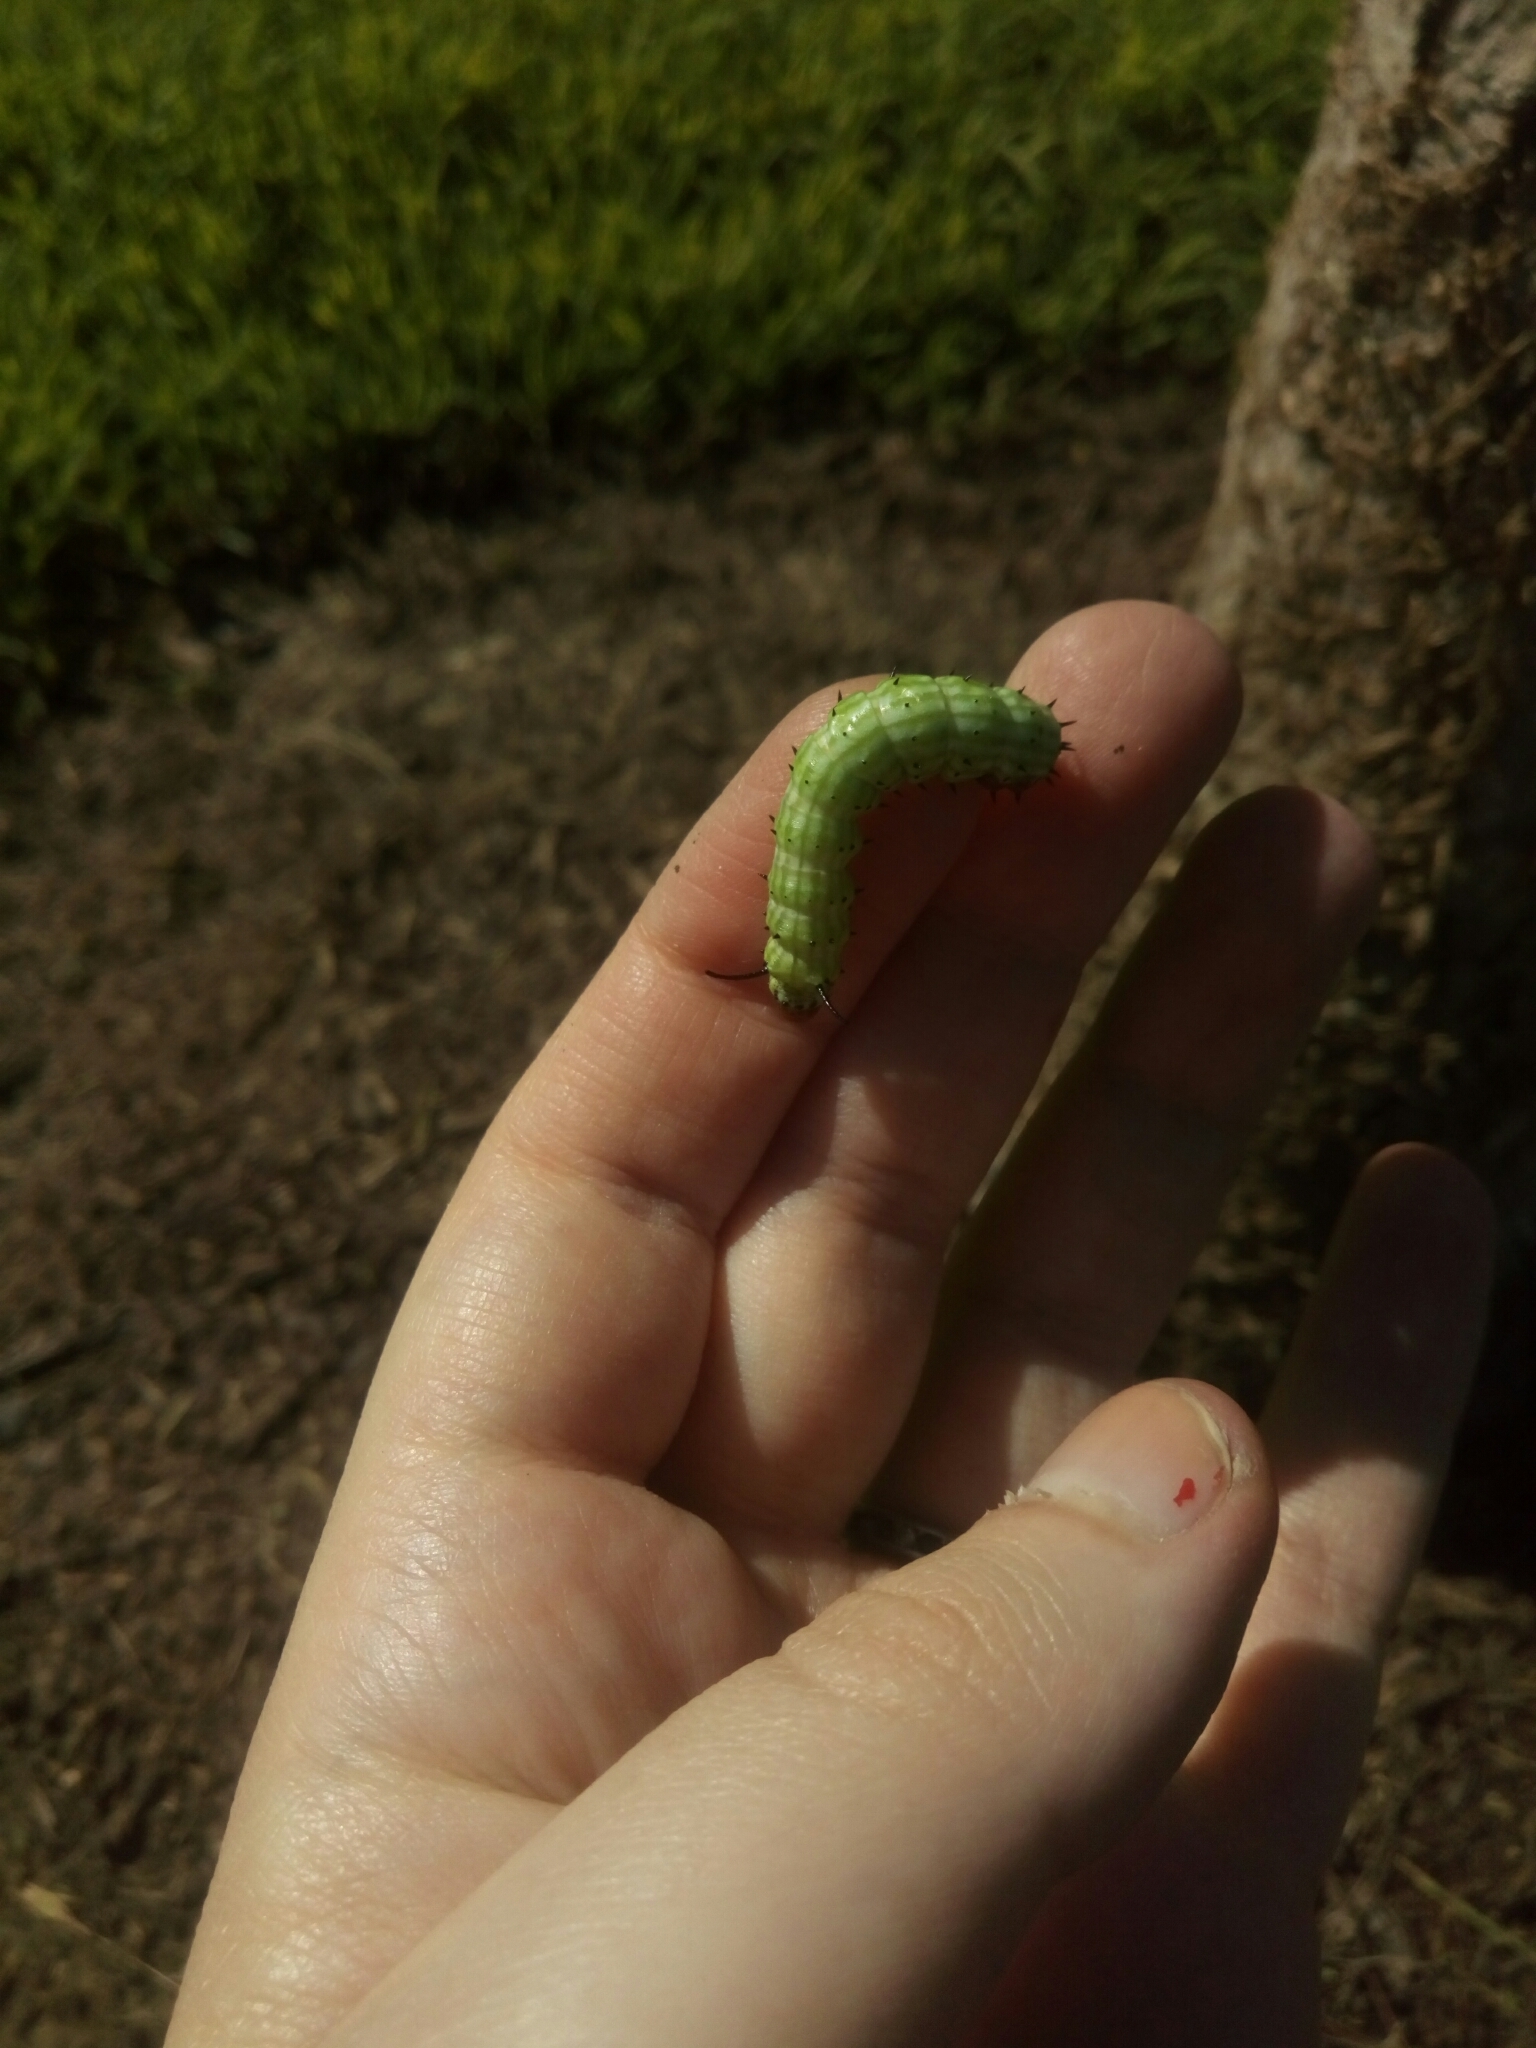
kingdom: Animalia
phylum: Arthropoda
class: Insecta
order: Lepidoptera
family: Saturniidae
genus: Dryocampa
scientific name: Dryocampa rubicunda
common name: Rosy maple moth
